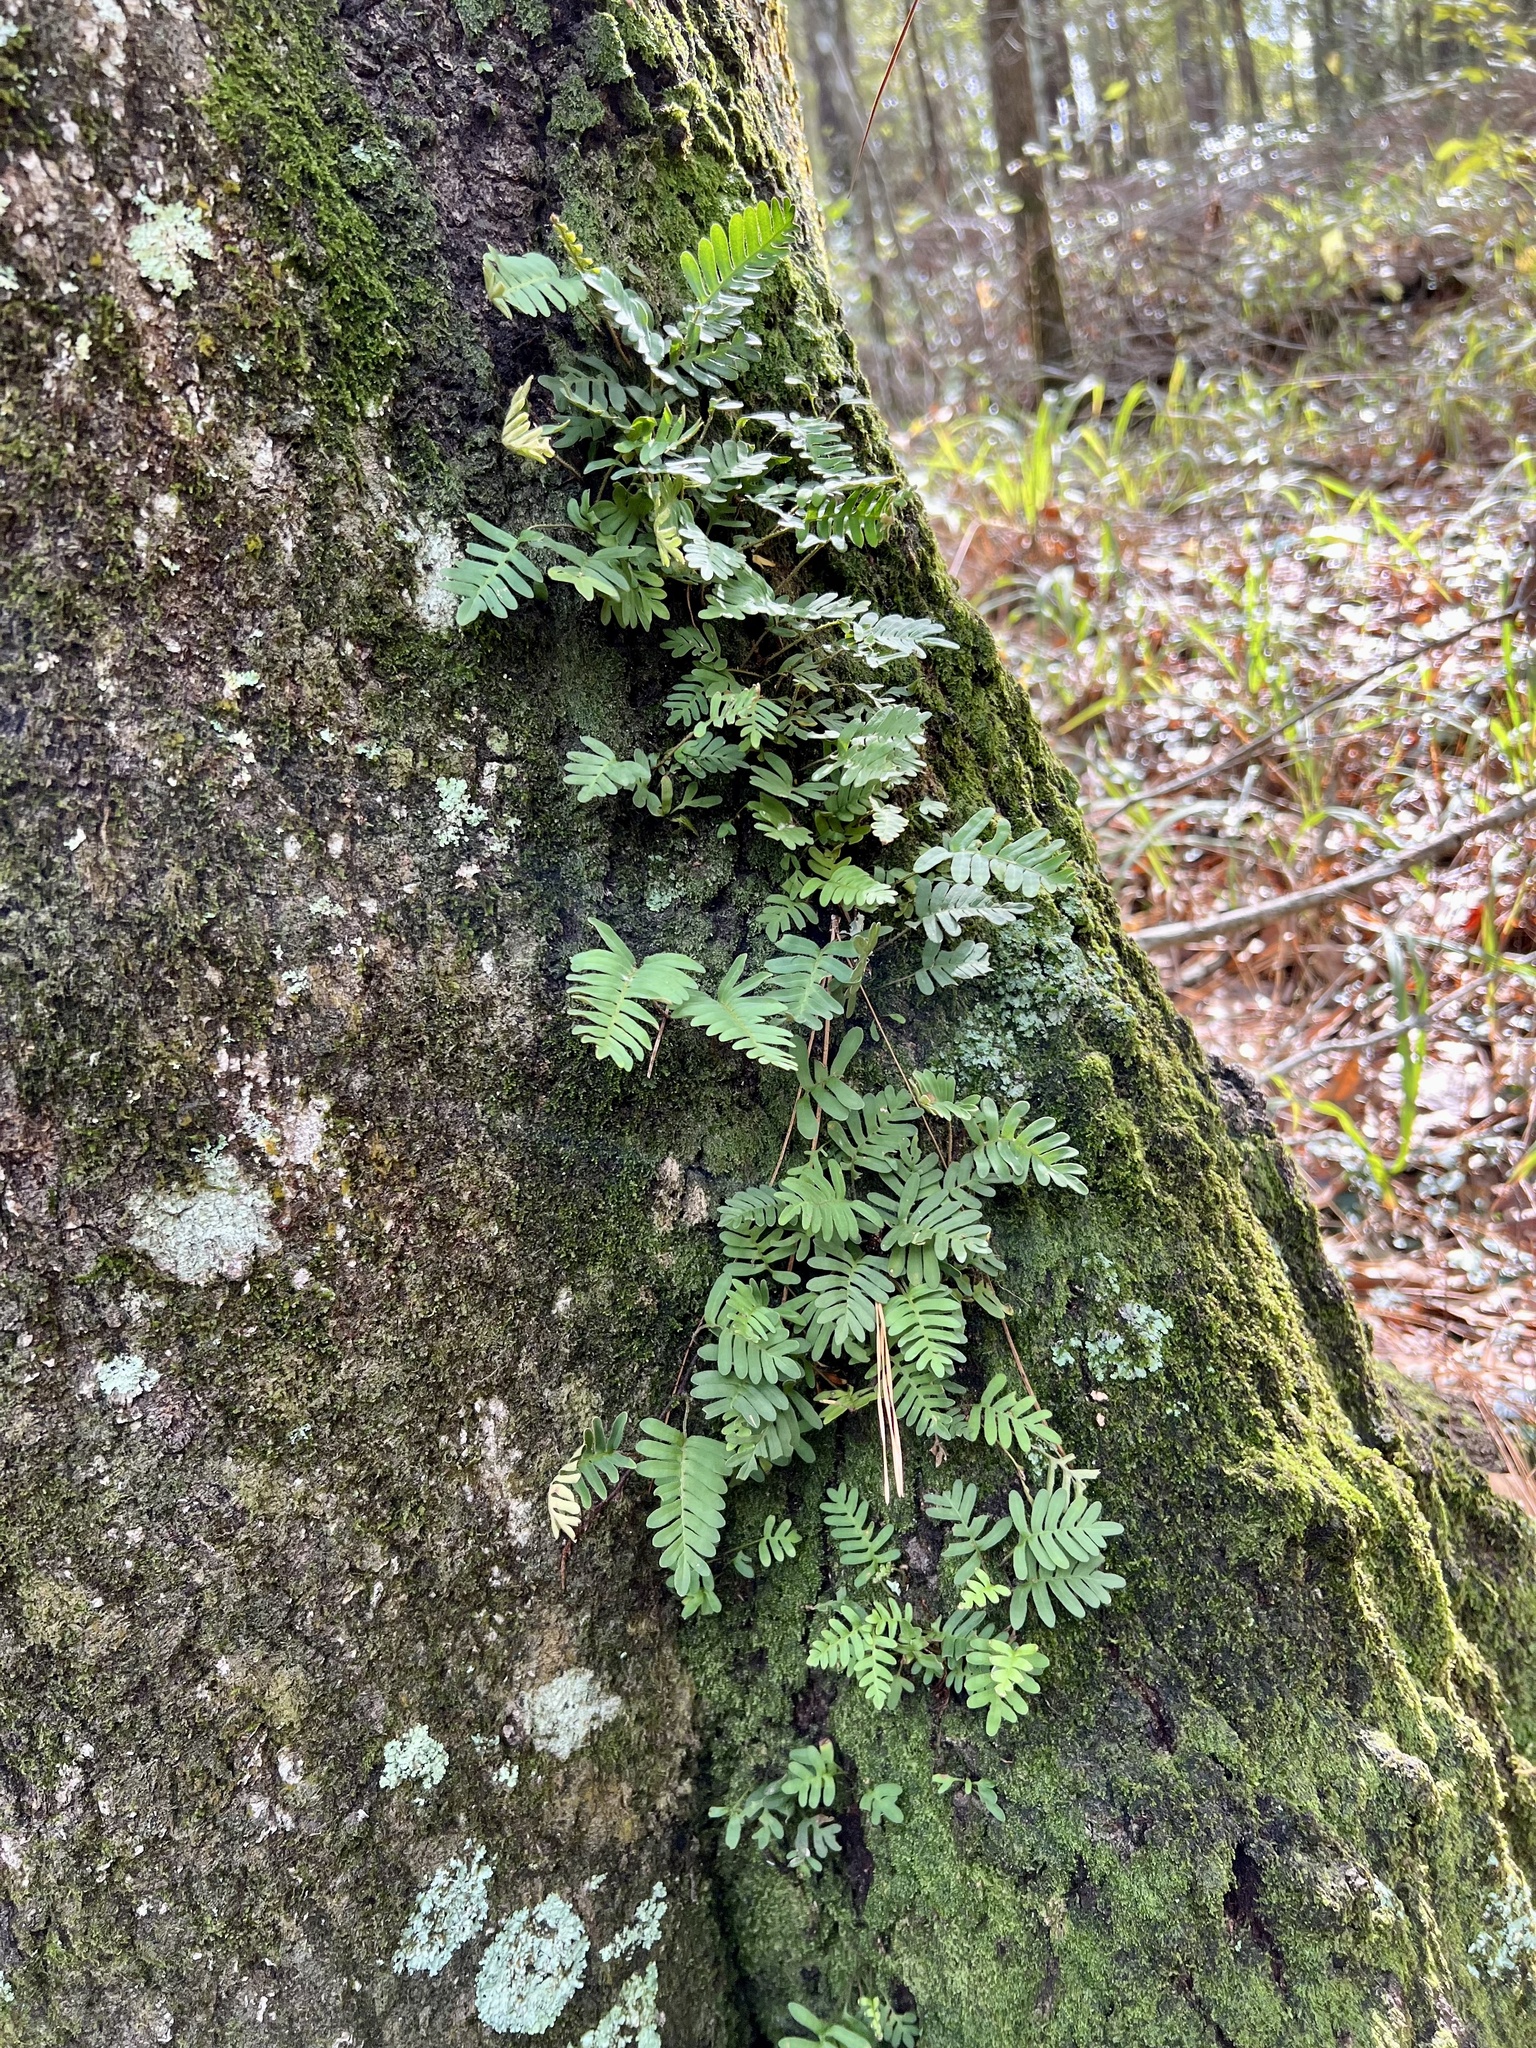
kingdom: Plantae
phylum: Tracheophyta
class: Polypodiopsida
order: Polypodiales
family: Polypodiaceae
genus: Pleopeltis
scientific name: Pleopeltis michauxiana
